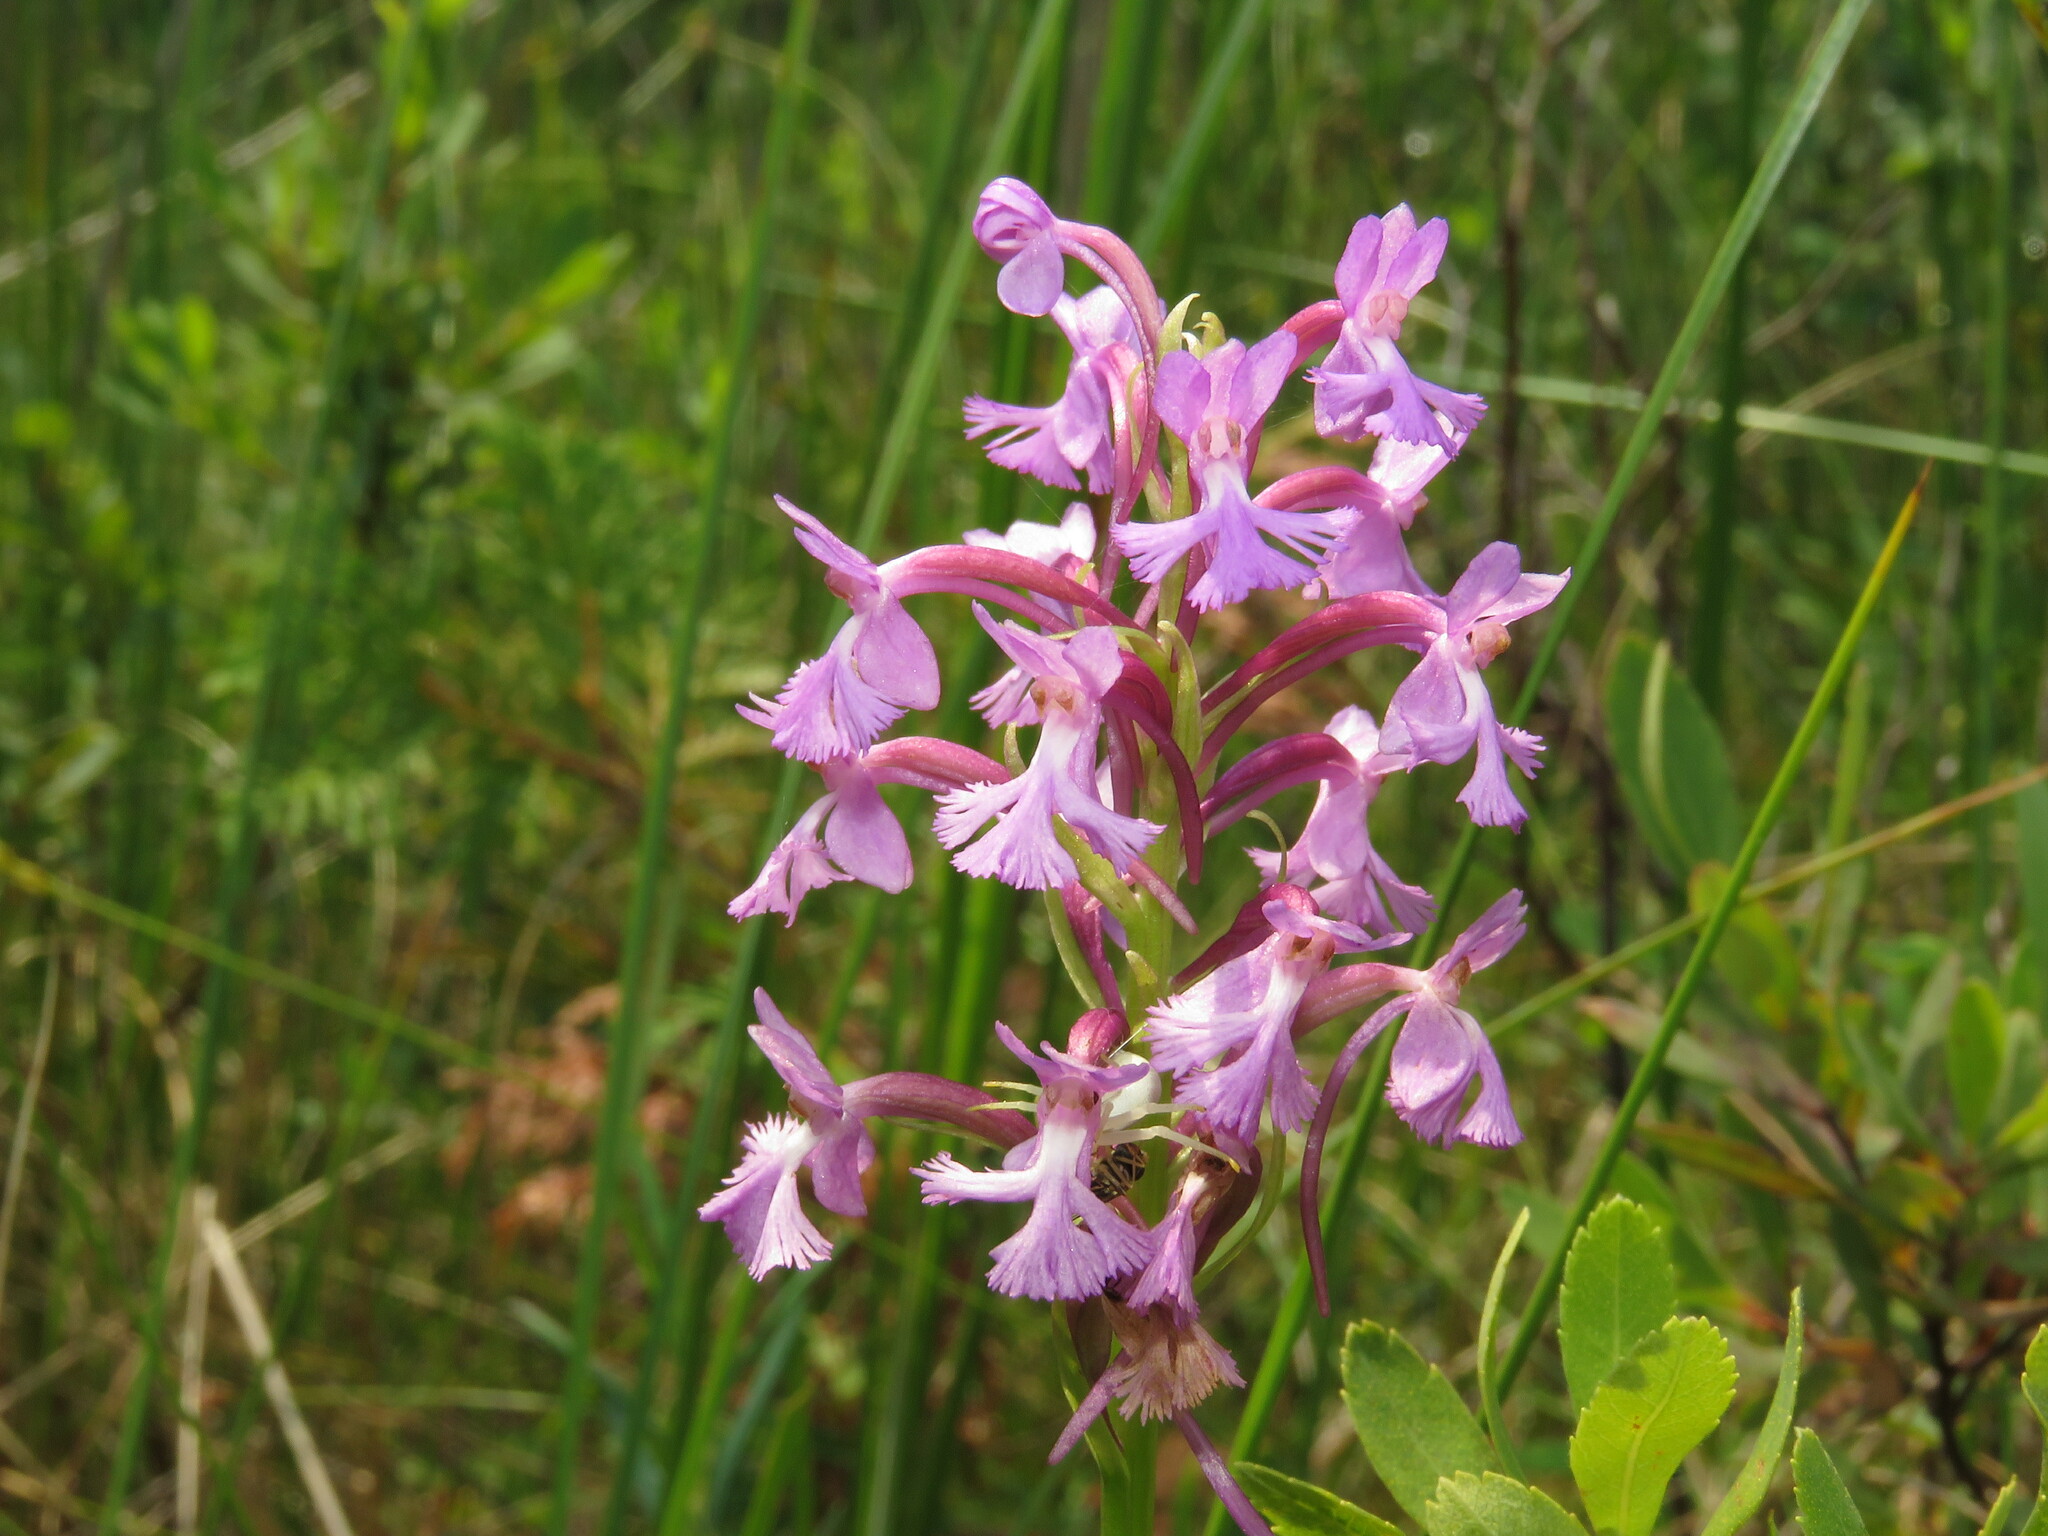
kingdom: Plantae
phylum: Tracheophyta
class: Liliopsida
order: Asparagales
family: Orchidaceae
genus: Platanthera
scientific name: Platanthera psycodes
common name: Lesser purple fringed orchid
